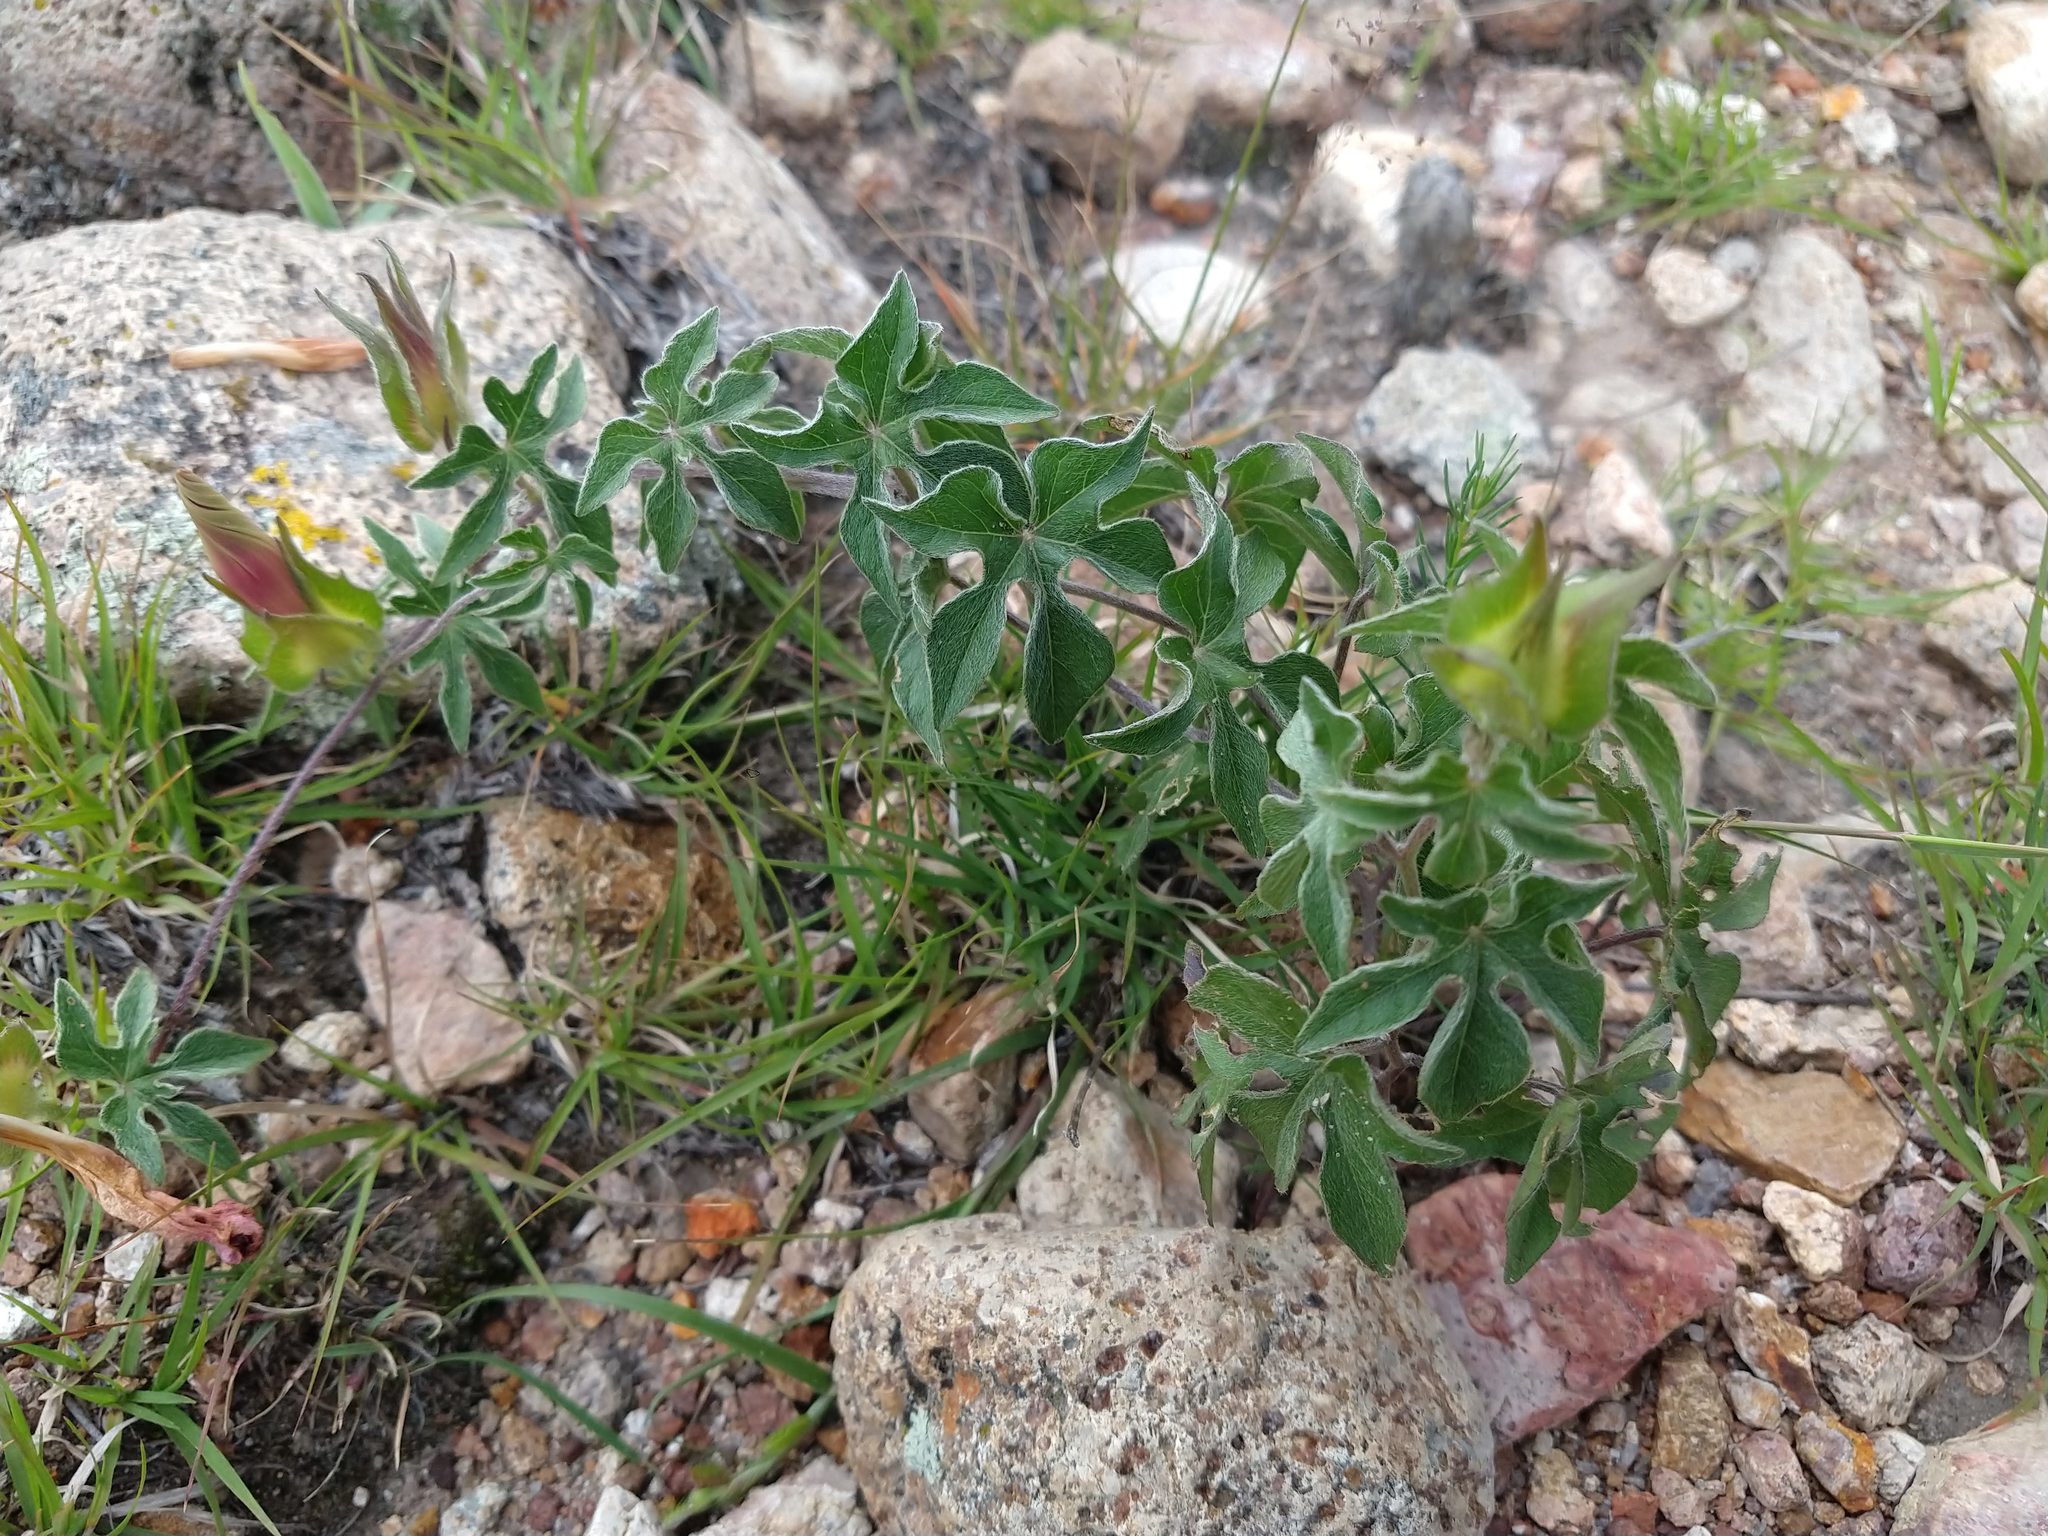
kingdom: Plantae
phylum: Tracheophyta
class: Magnoliopsida
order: Solanales
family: Convolvulaceae
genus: Ipomoea
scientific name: Ipomoea pubescens
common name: Silky morning-glory
